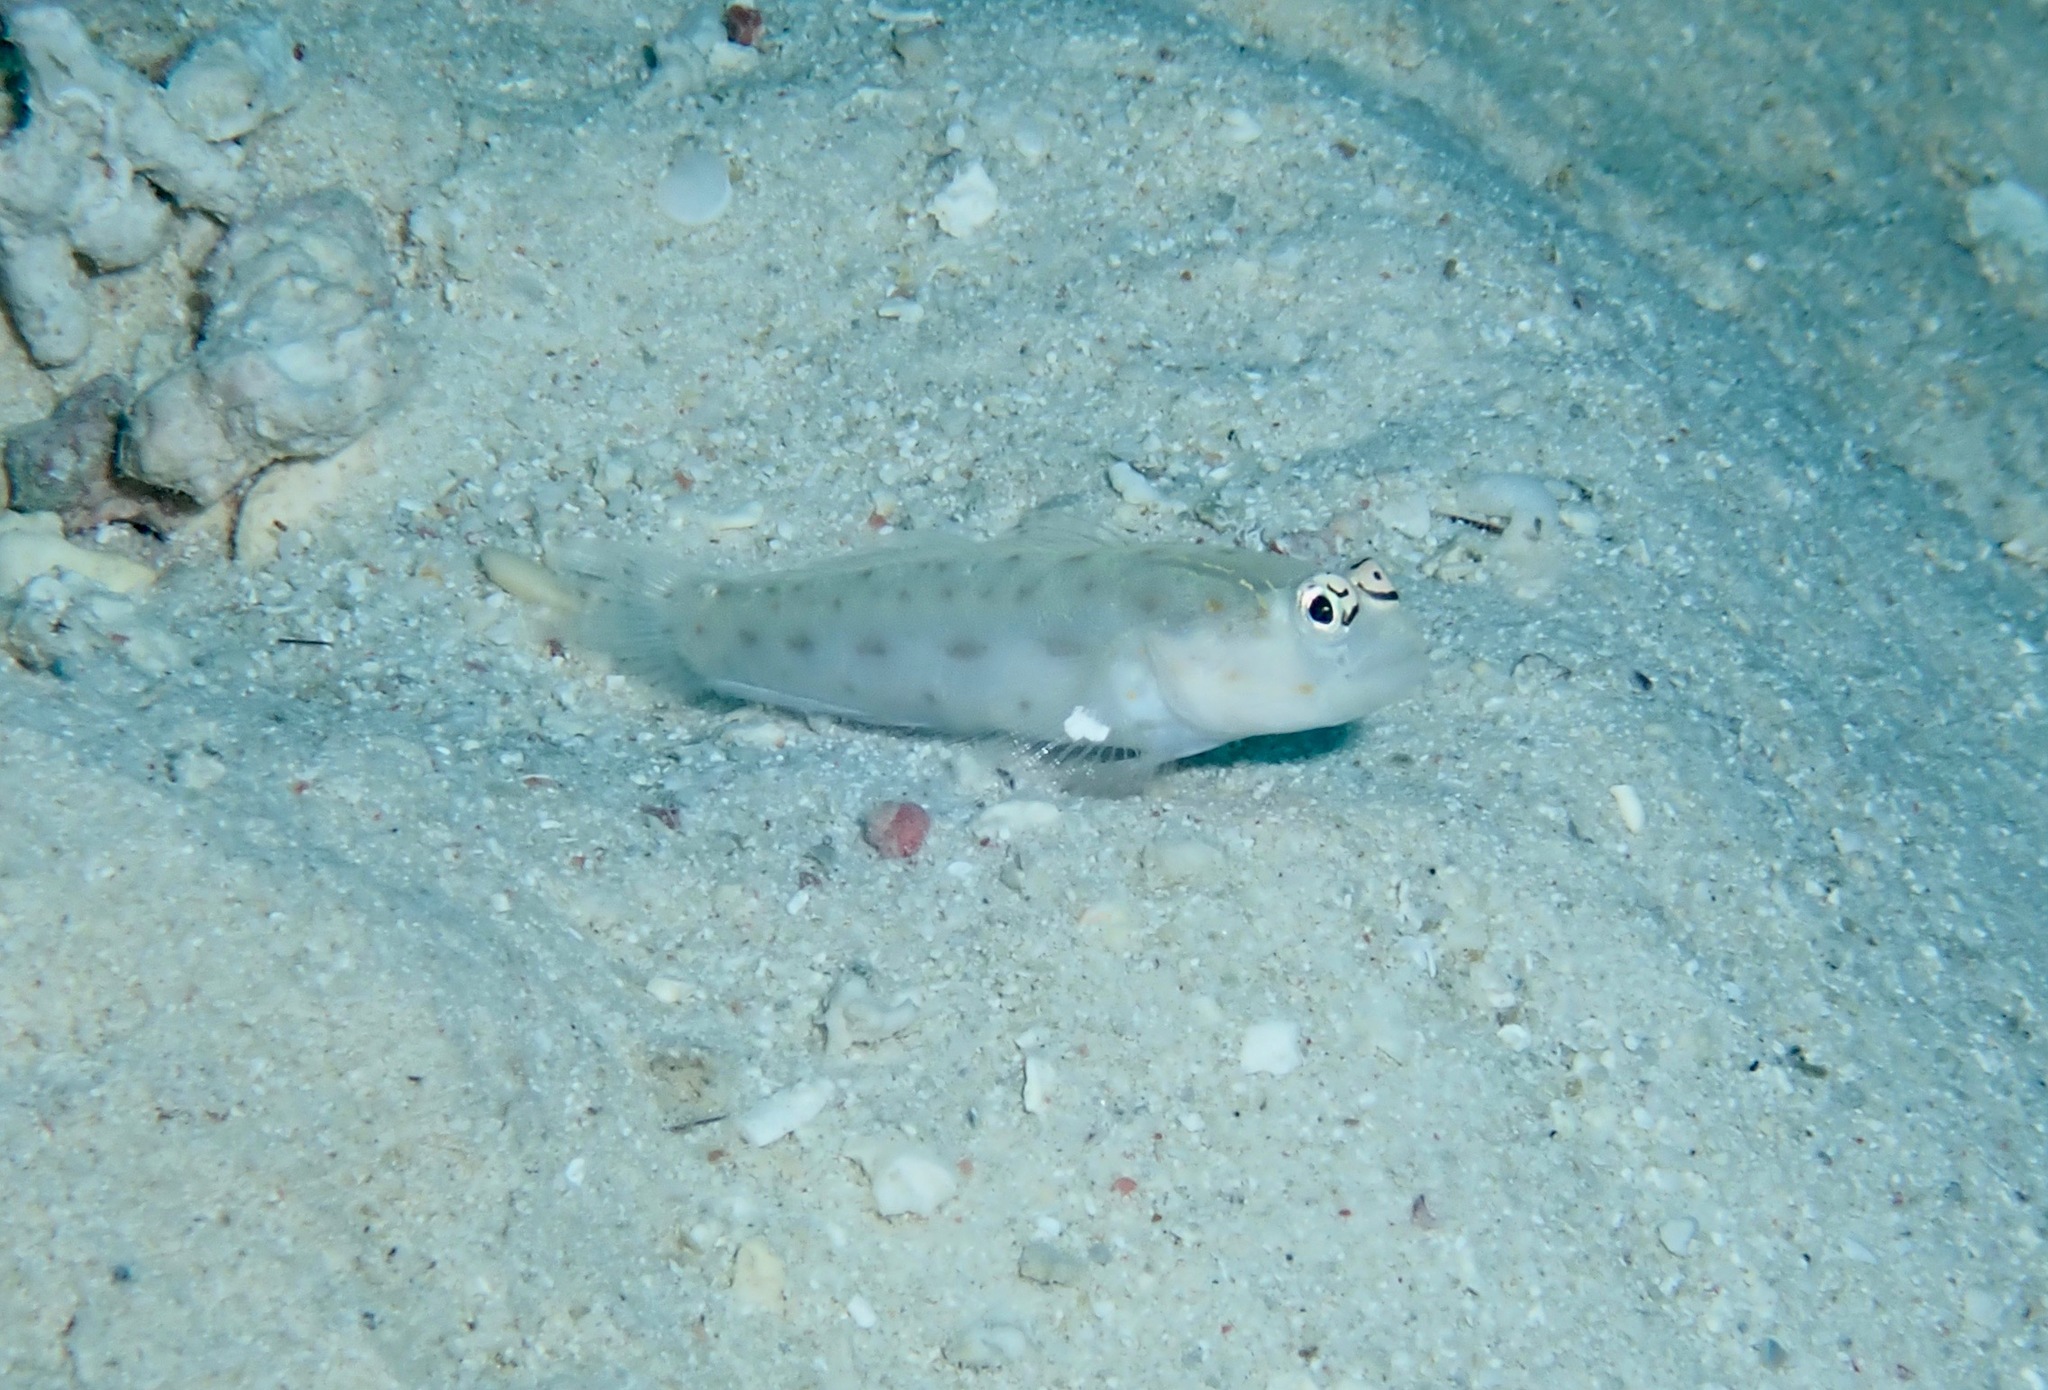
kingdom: Animalia
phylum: Chordata
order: Perciformes
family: Gobiidae
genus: Ctenogobiops
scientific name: Ctenogobiops mitodes
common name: Thread shrimpgoby
